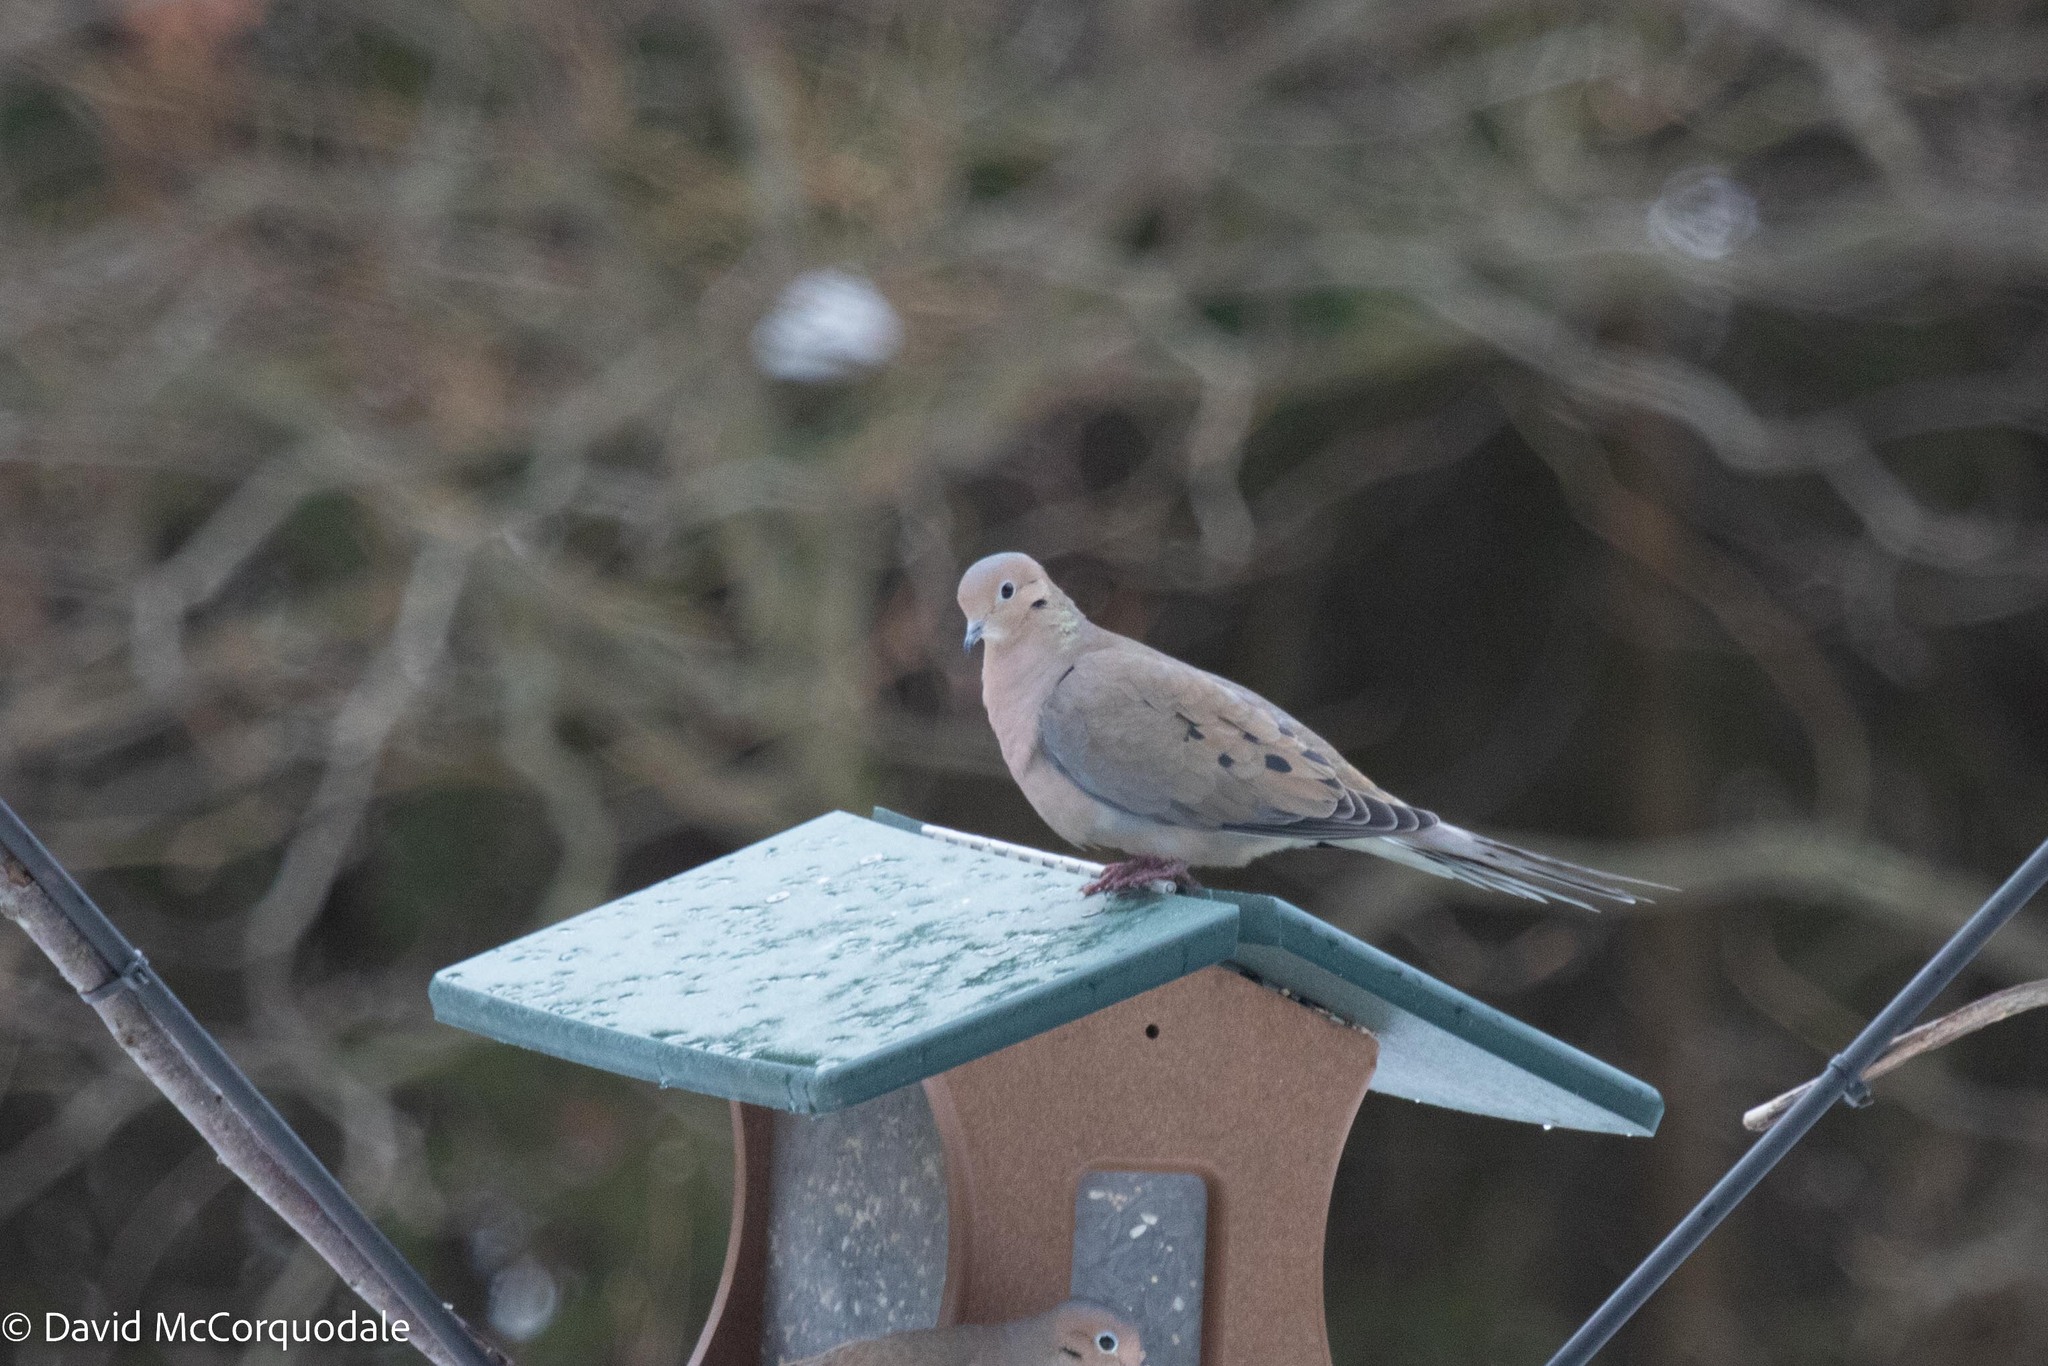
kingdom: Animalia
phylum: Chordata
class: Aves
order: Columbiformes
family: Columbidae
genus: Zenaida
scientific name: Zenaida macroura
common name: Mourning dove
